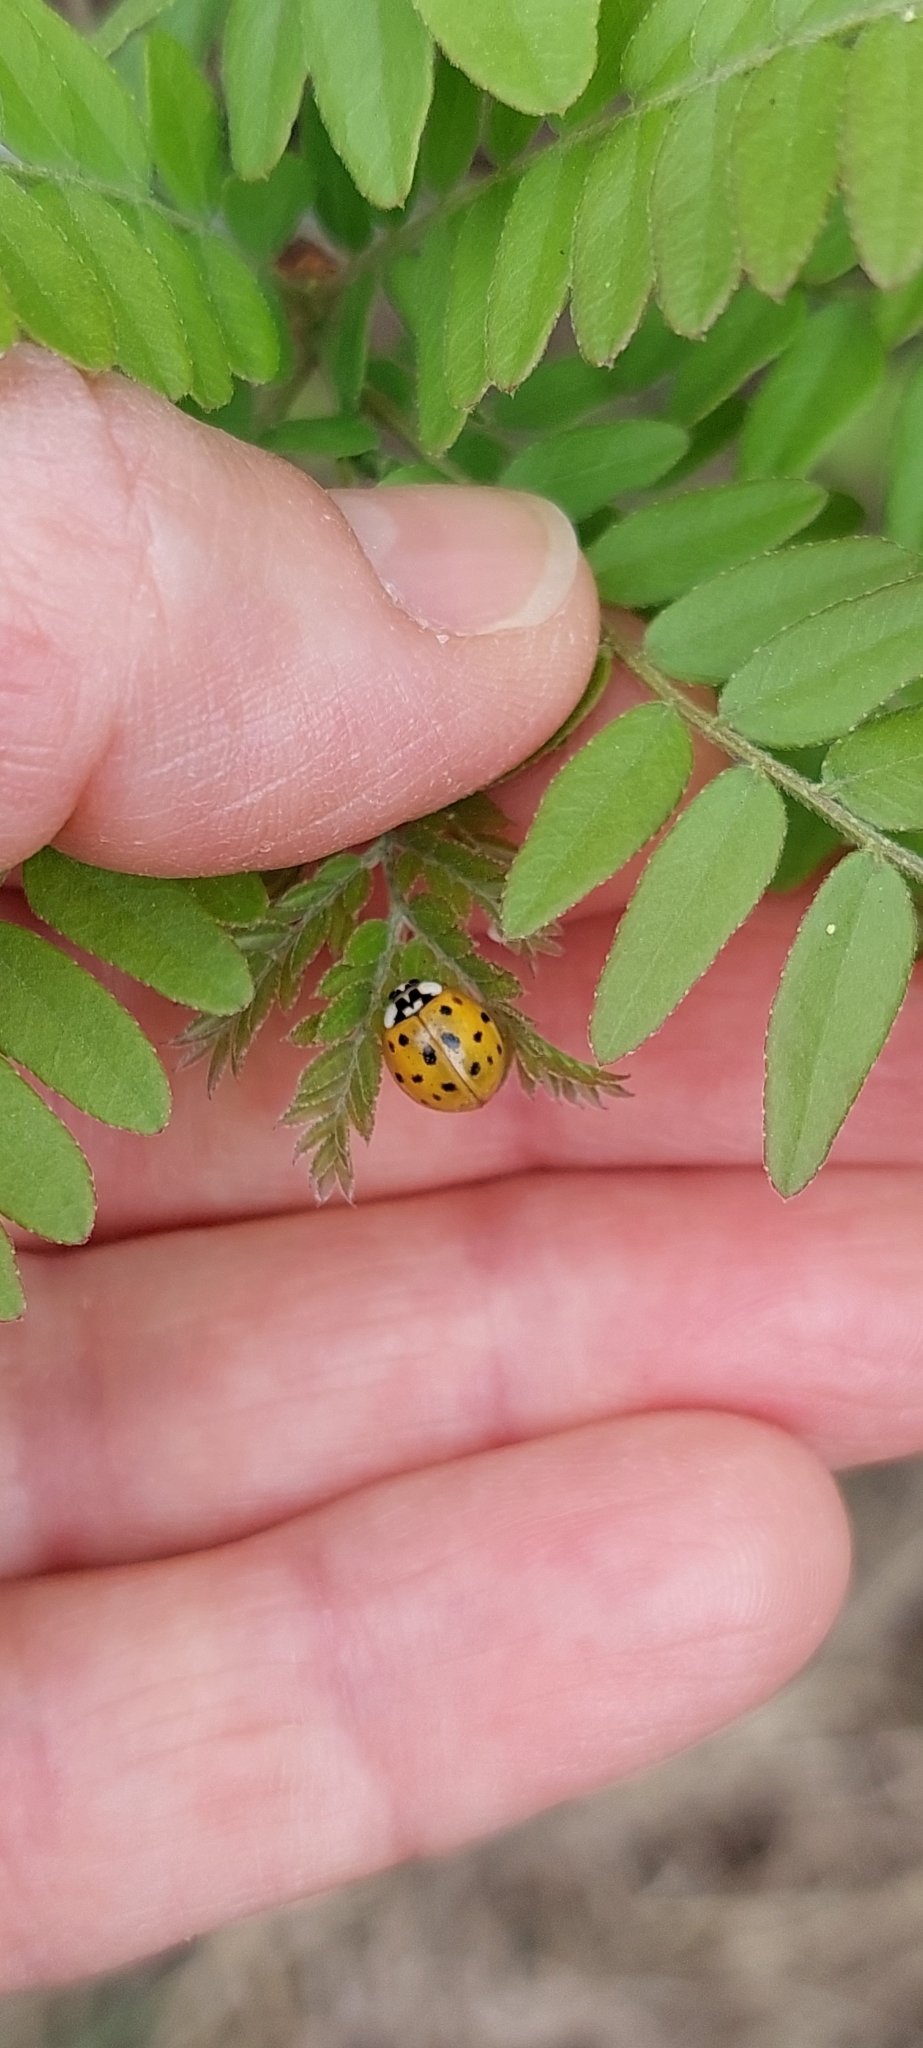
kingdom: Animalia
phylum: Arthropoda
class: Insecta
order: Coleoptera
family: Coccinellidae
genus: Harmonia
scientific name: Harmonia axyridis
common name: Harlequin ladybird
